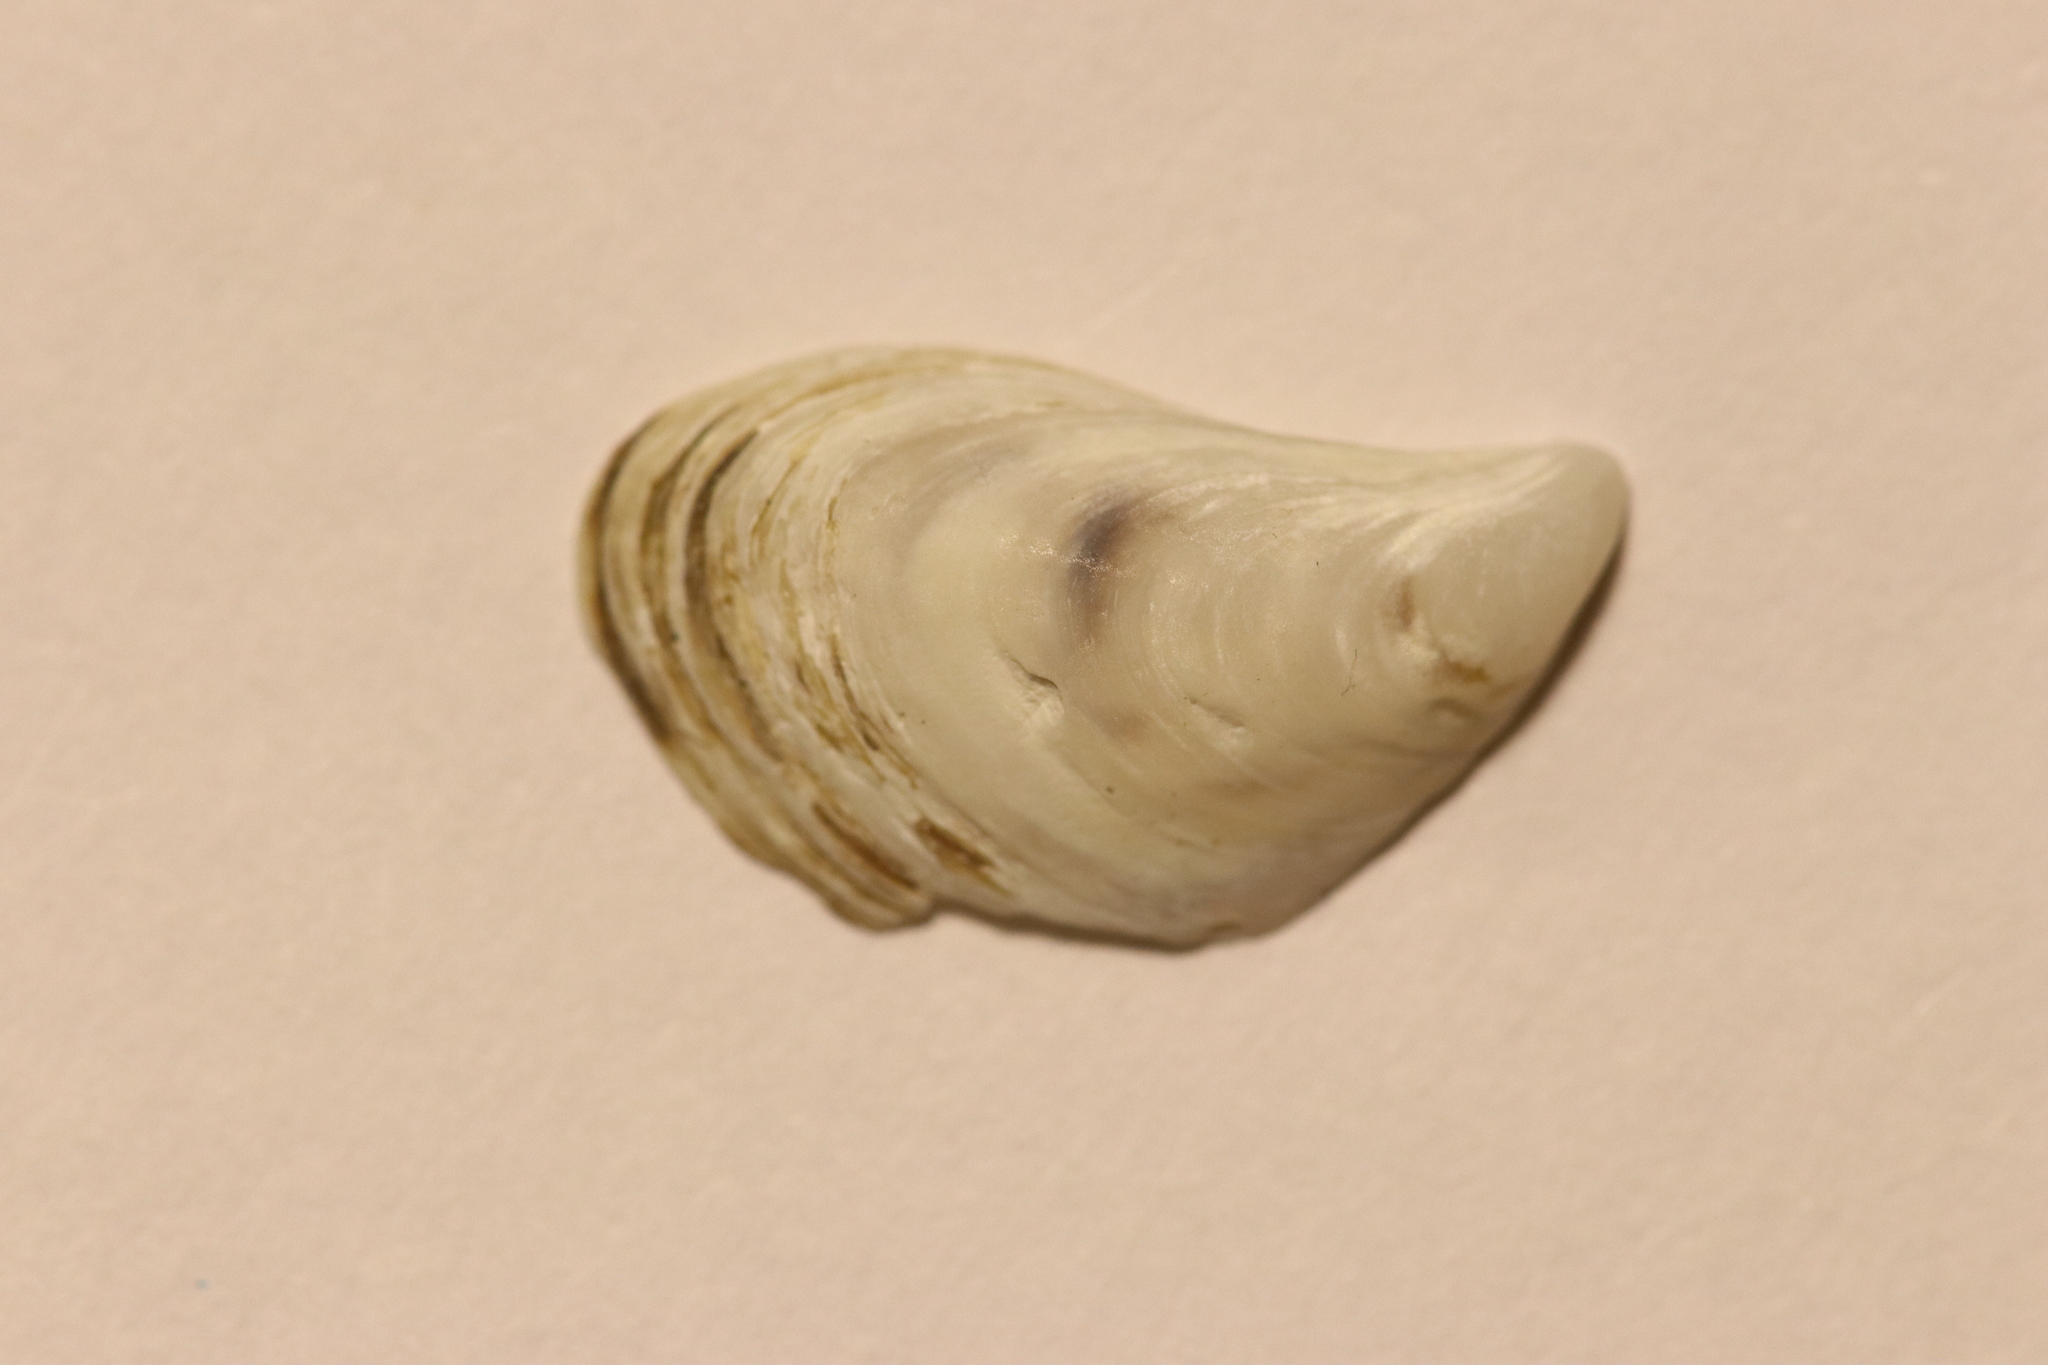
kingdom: Animalia
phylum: Mollusca
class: Bivalvia
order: Myida
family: Dreissenidae
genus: Dreissena
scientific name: Dreissena bugensis
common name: Quagga mussel
